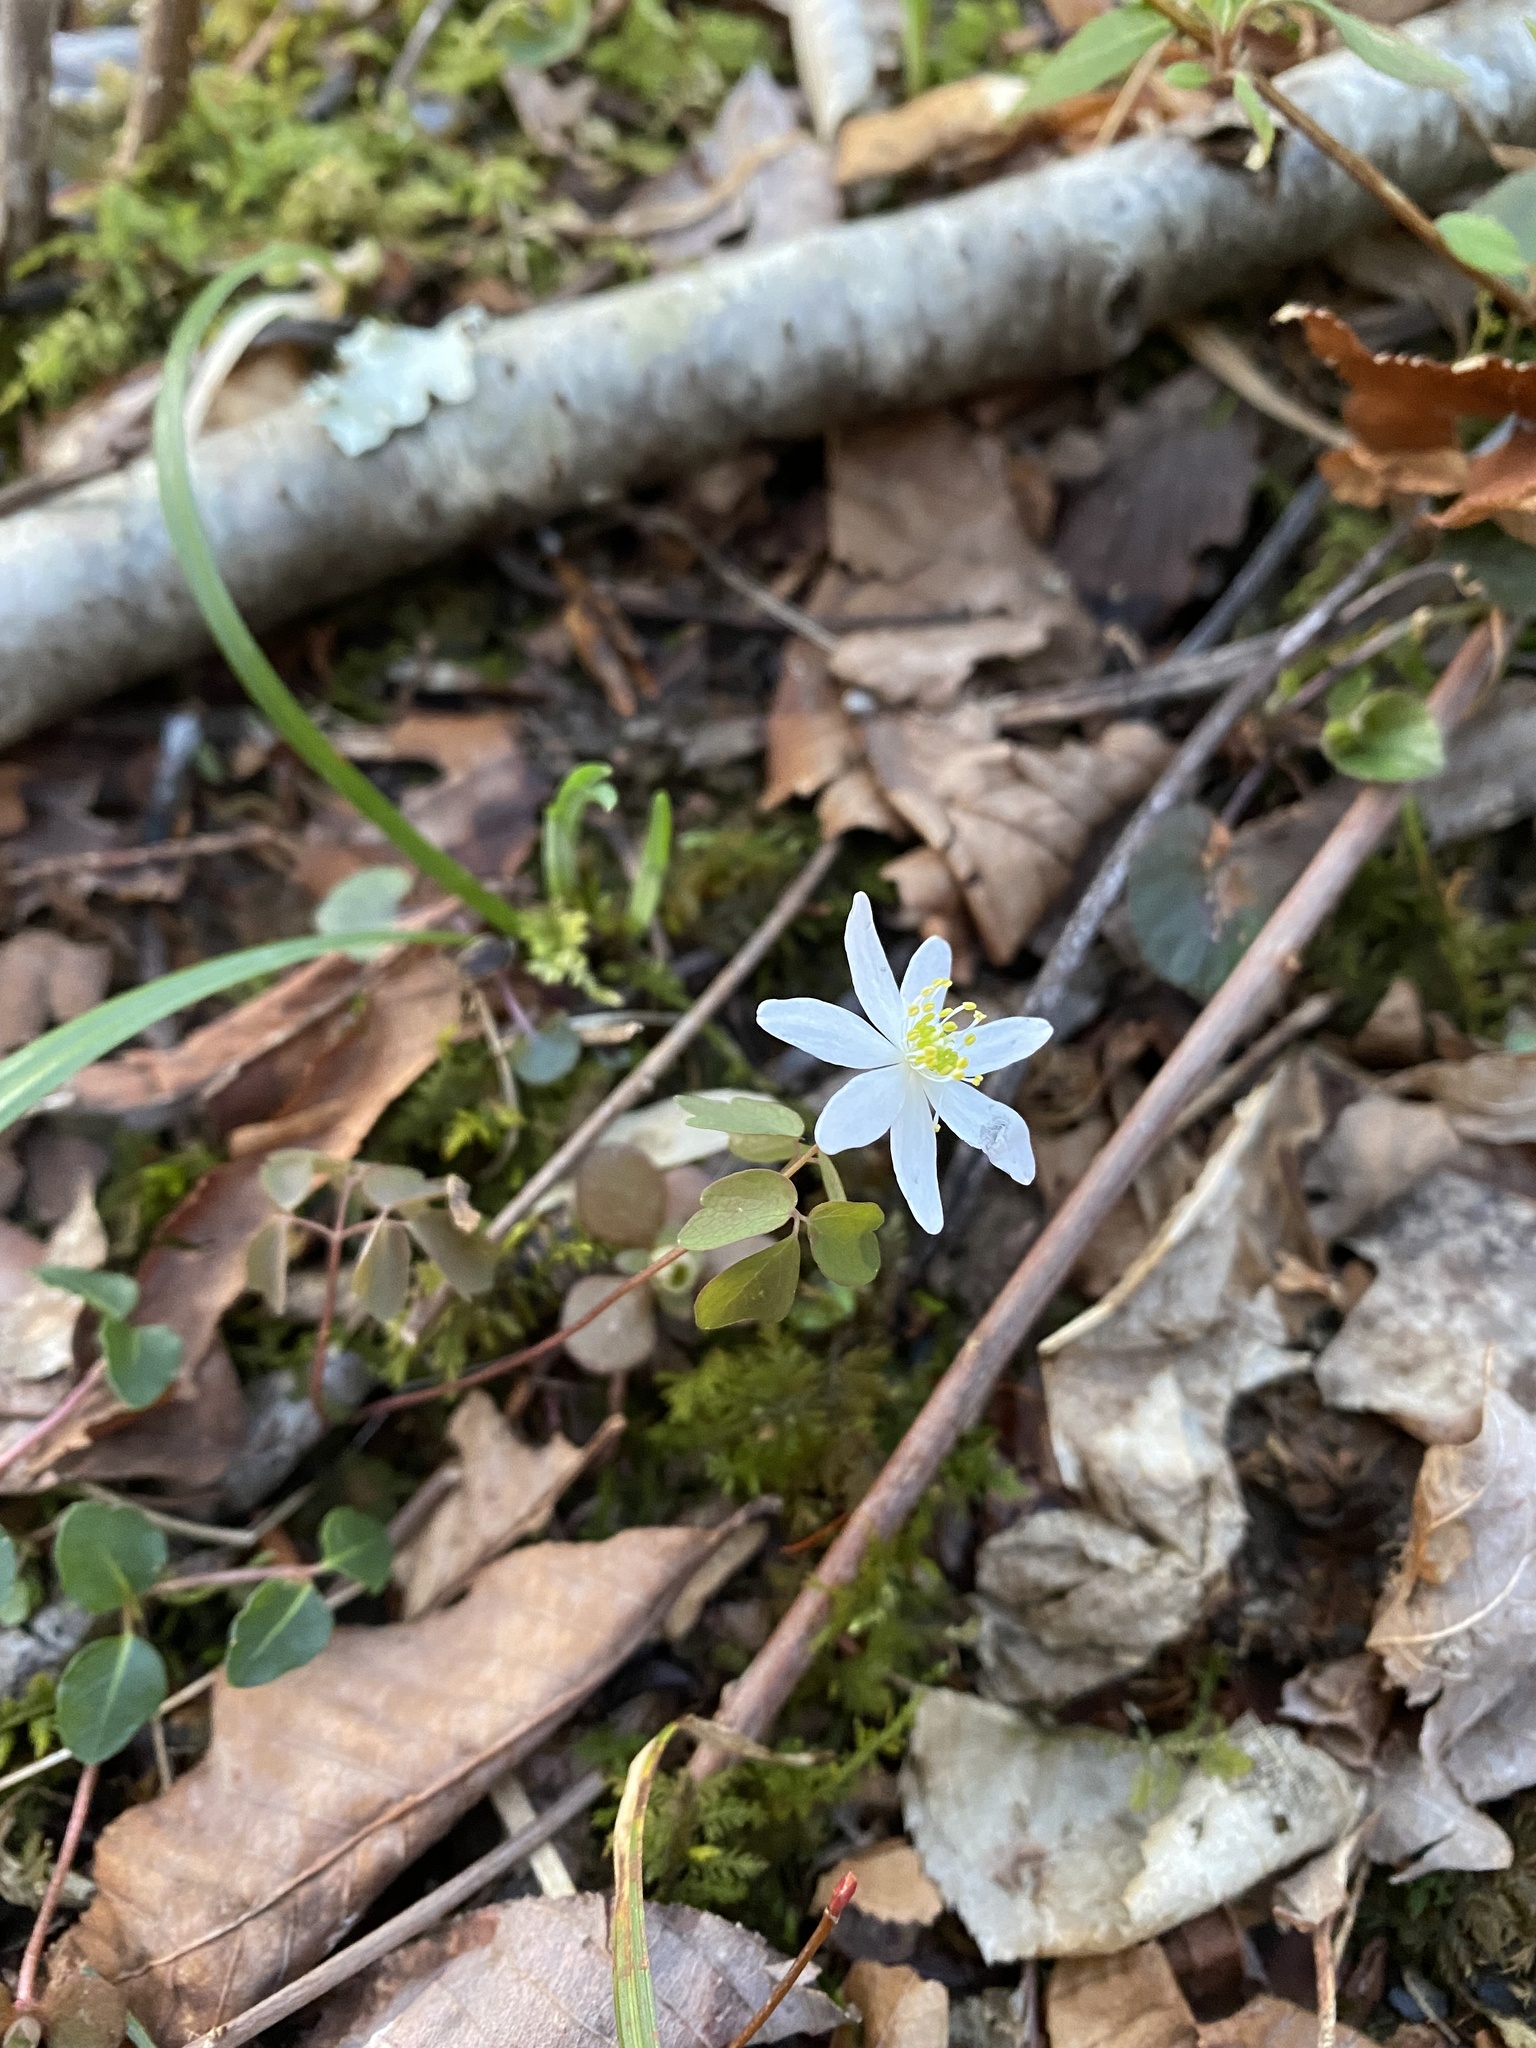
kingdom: Plantae
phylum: Tracheophyta
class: Magnoliopsida
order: Ranunculales
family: Ranunculaceae
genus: Thalictrum
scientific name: Thalictrum thalictroides
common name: Rue-anemone
